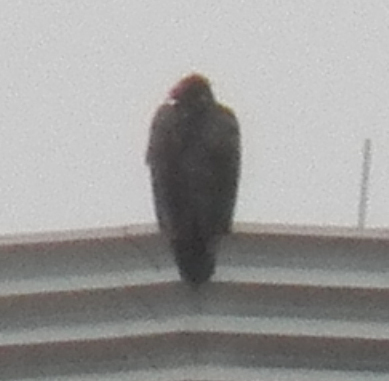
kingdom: Animalia
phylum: Chordata
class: Aves
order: Accipitriformes
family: Cathartidae
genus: Cathartes
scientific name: Cathartes aura
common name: Turkey vulture
